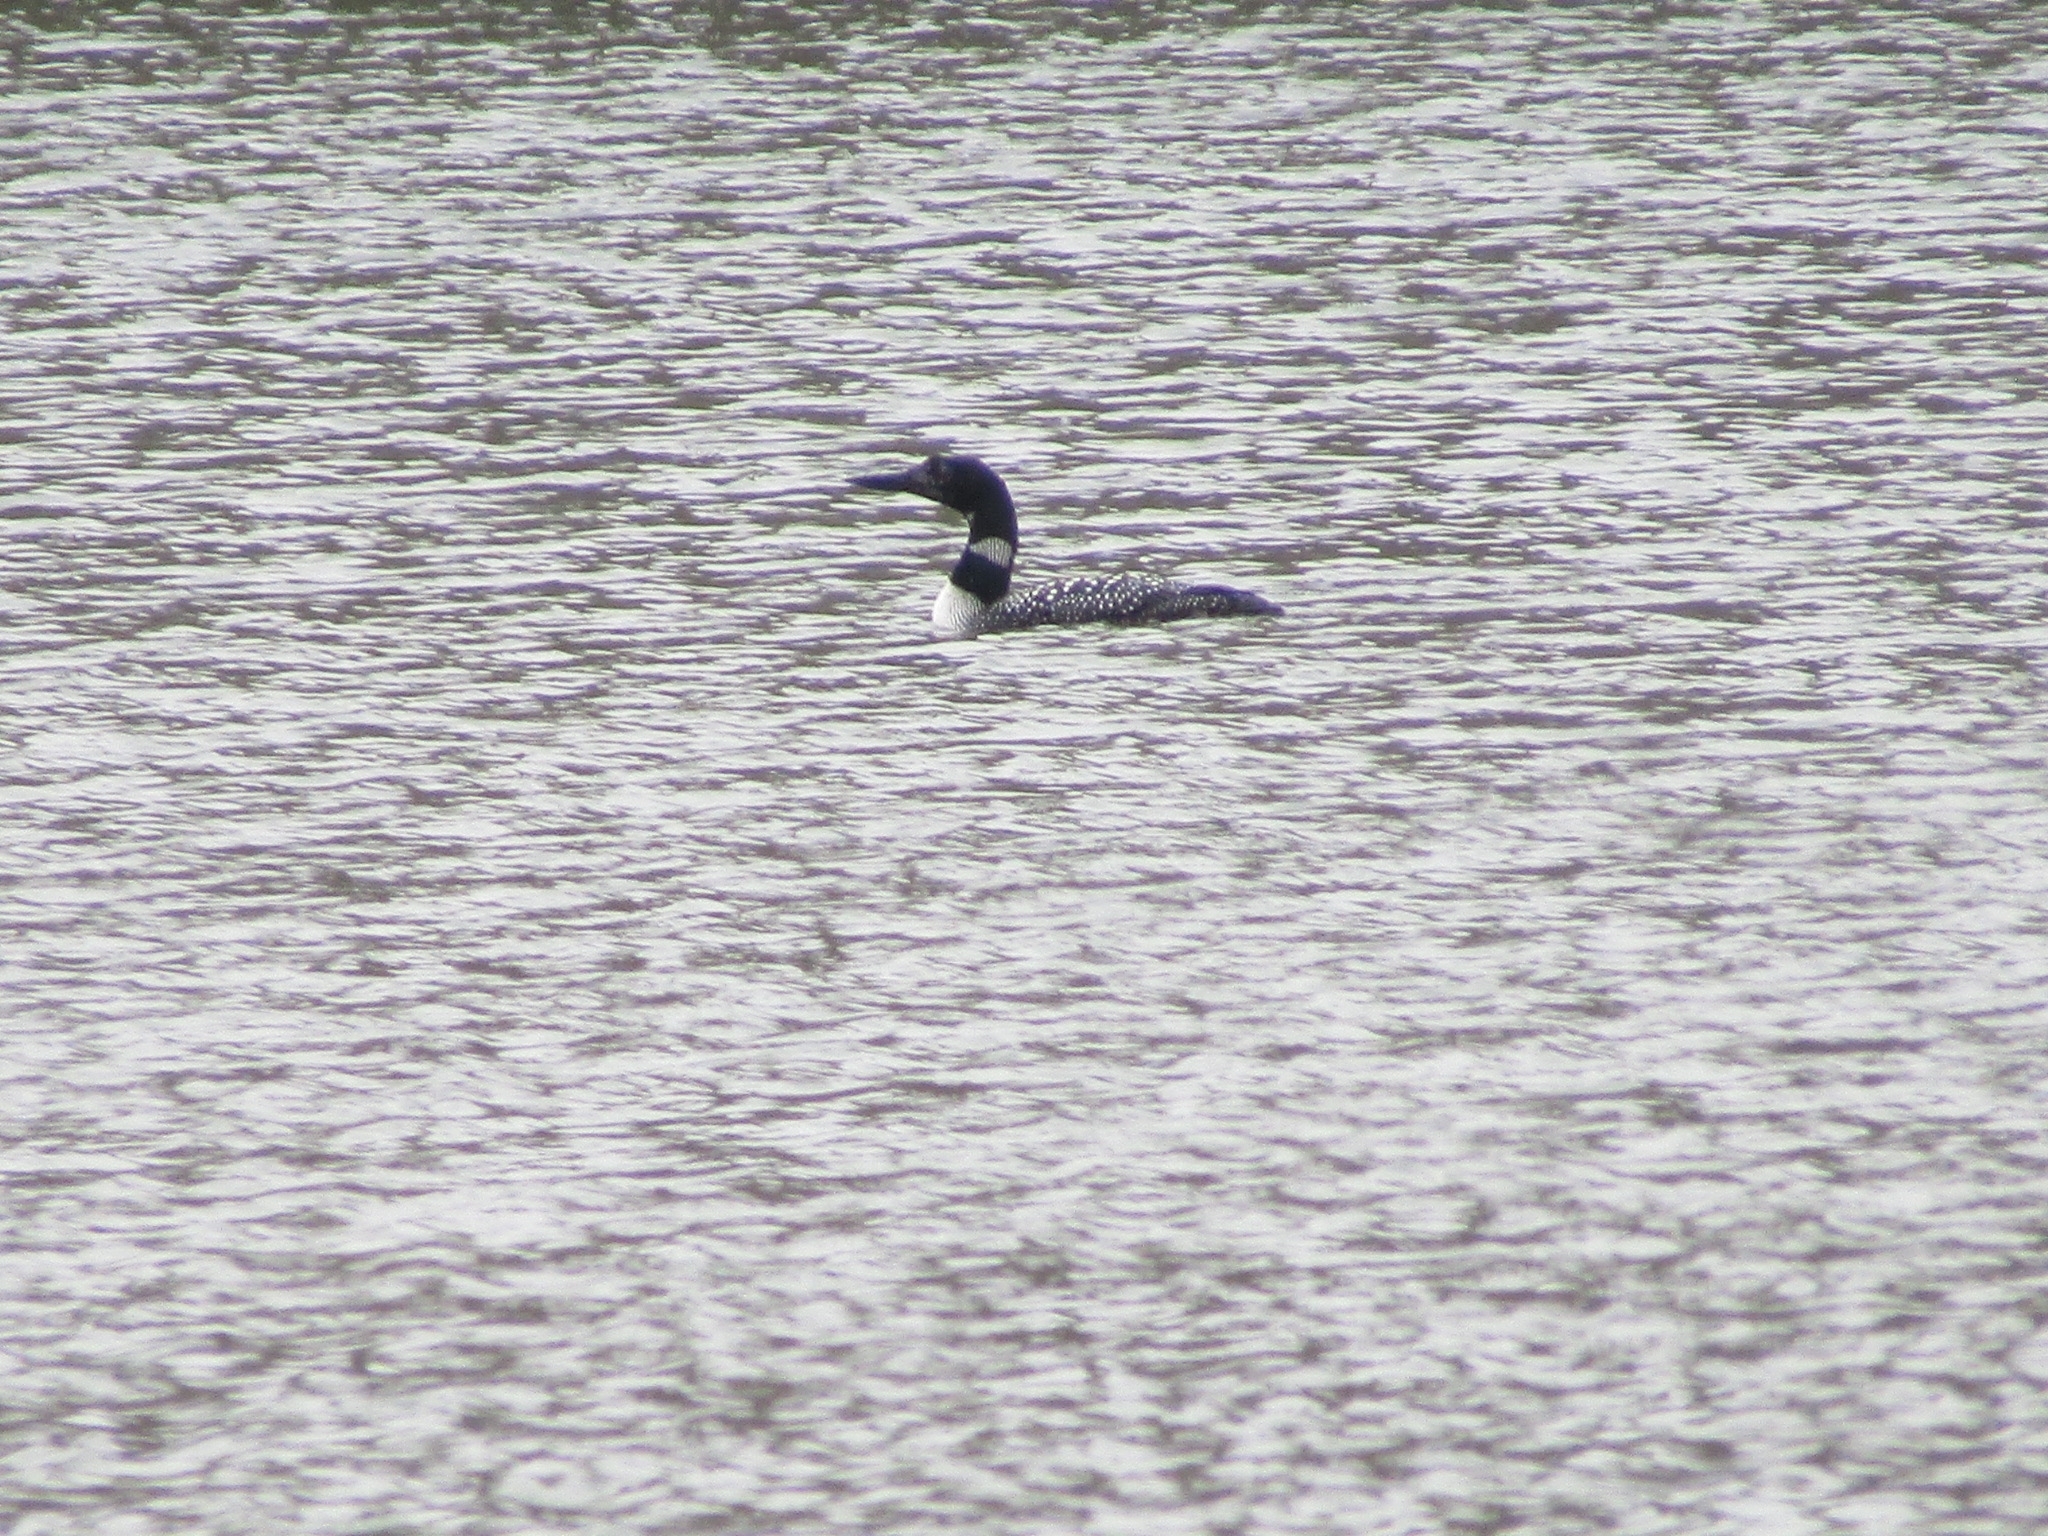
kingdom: Animalia
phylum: Chordata
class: Aves
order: Gaviiformes
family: Gaviidae
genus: Gavia
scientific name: Gavia immer
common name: Common loon
